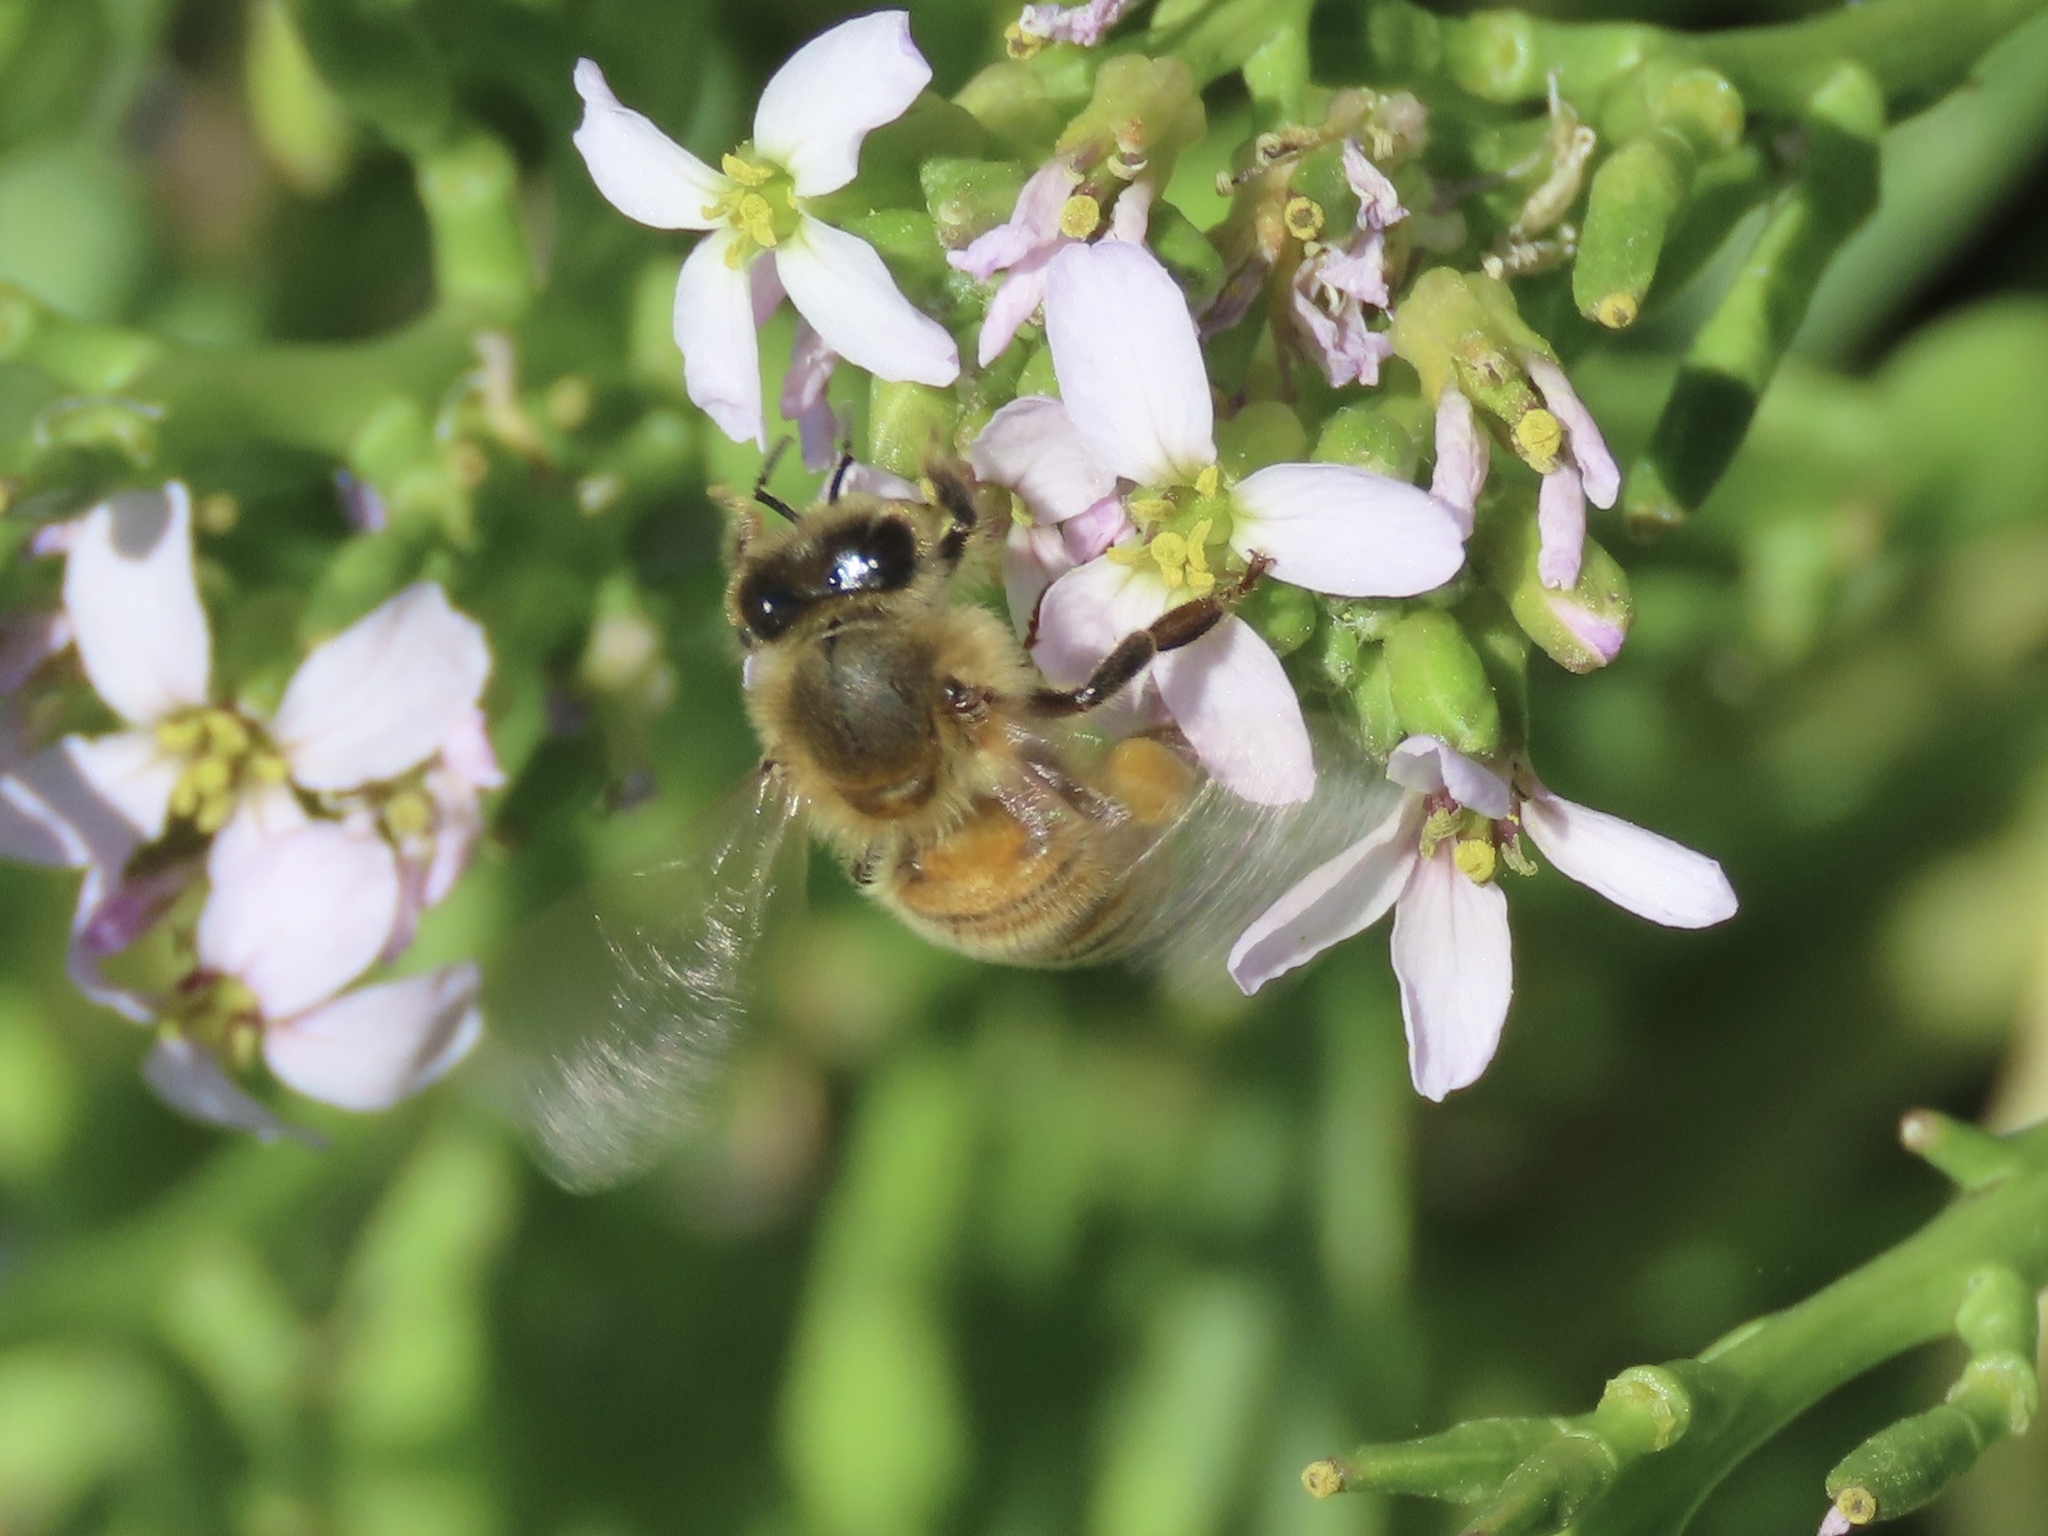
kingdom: Animalia
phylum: Arthropoda
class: Insecta
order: Hymenoptera
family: Apidae
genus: Apis
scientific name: Apis mellifera
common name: Honey bee
